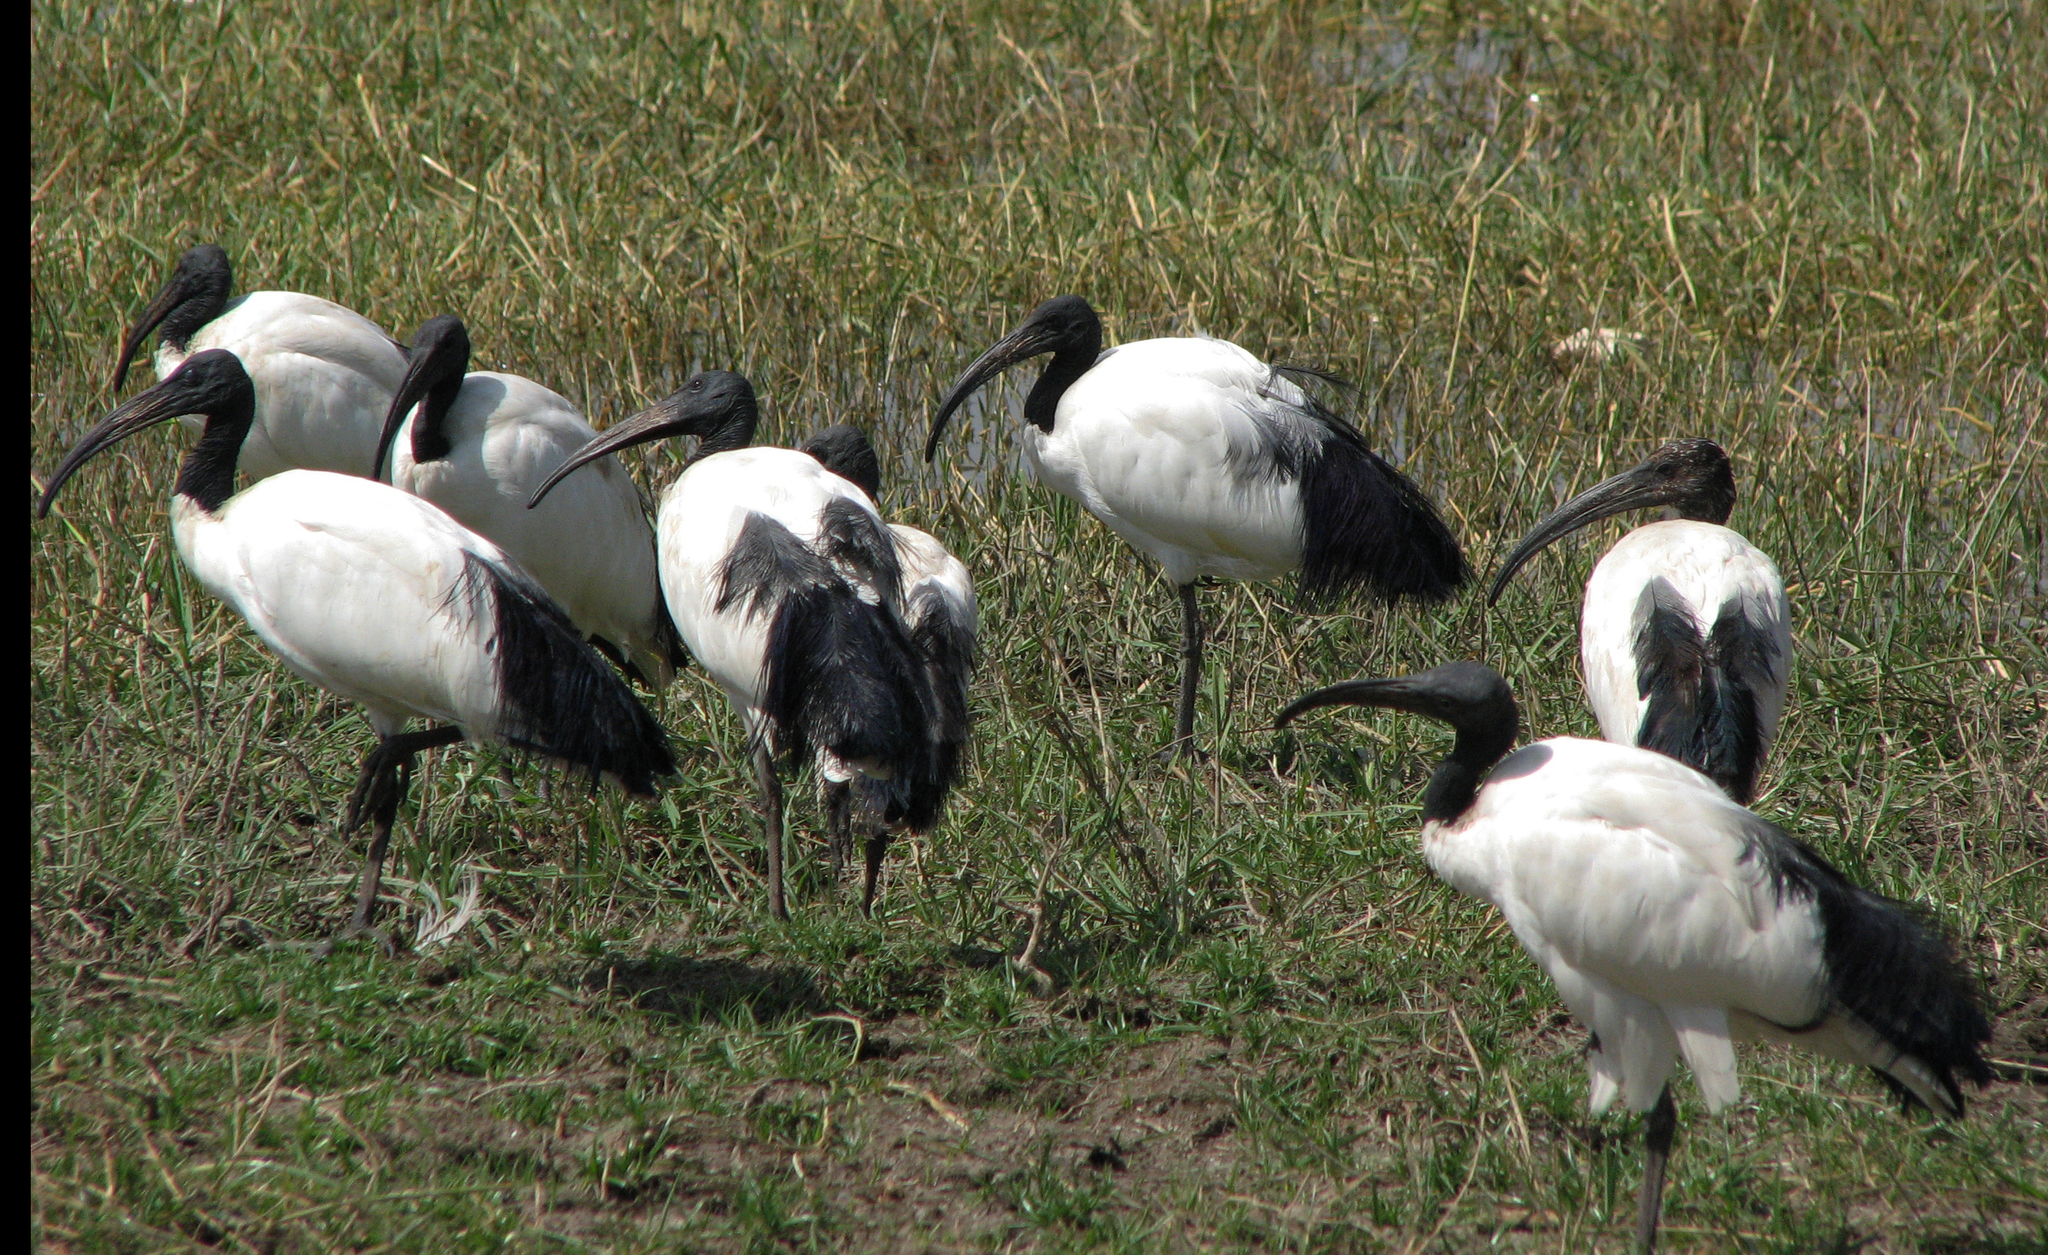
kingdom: Animalia
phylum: Chordata
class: Aves
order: Pelecaniformes
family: Threskiornithidae
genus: Threskiornis
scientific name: Threskiornis aethiopicus
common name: Sacred ibis
